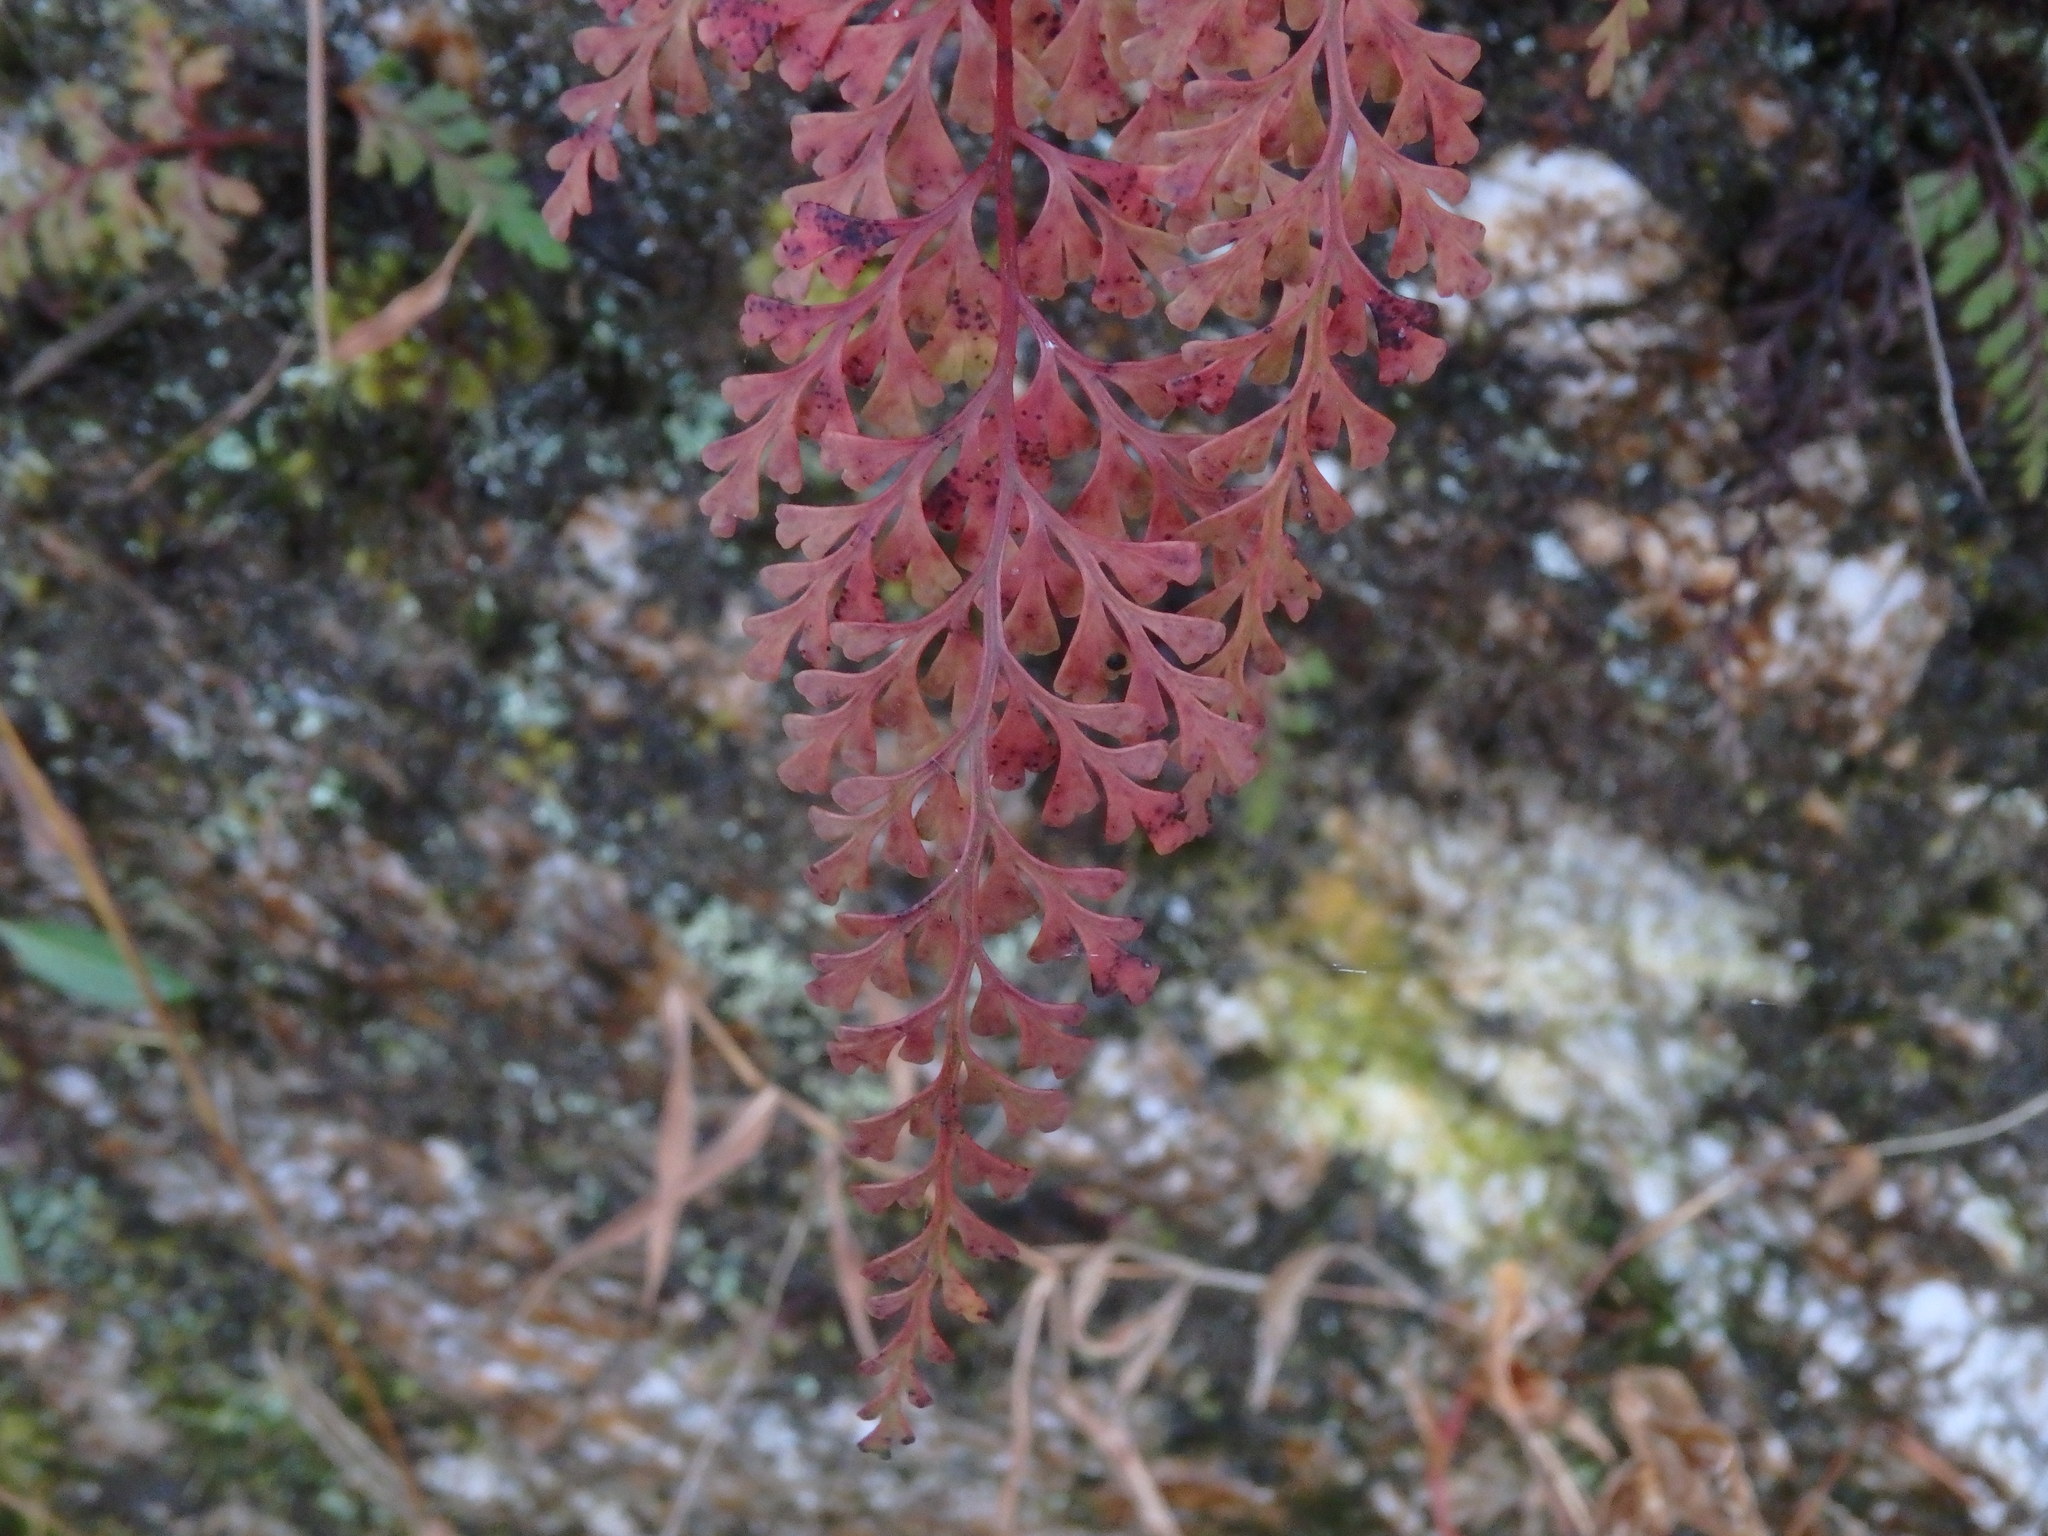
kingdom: Plantae
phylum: Tracheophyta
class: Polypodiopsida
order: Polypodiales
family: Lindsaeaceae
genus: Odontosoria
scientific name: Odontosoria chinensis
